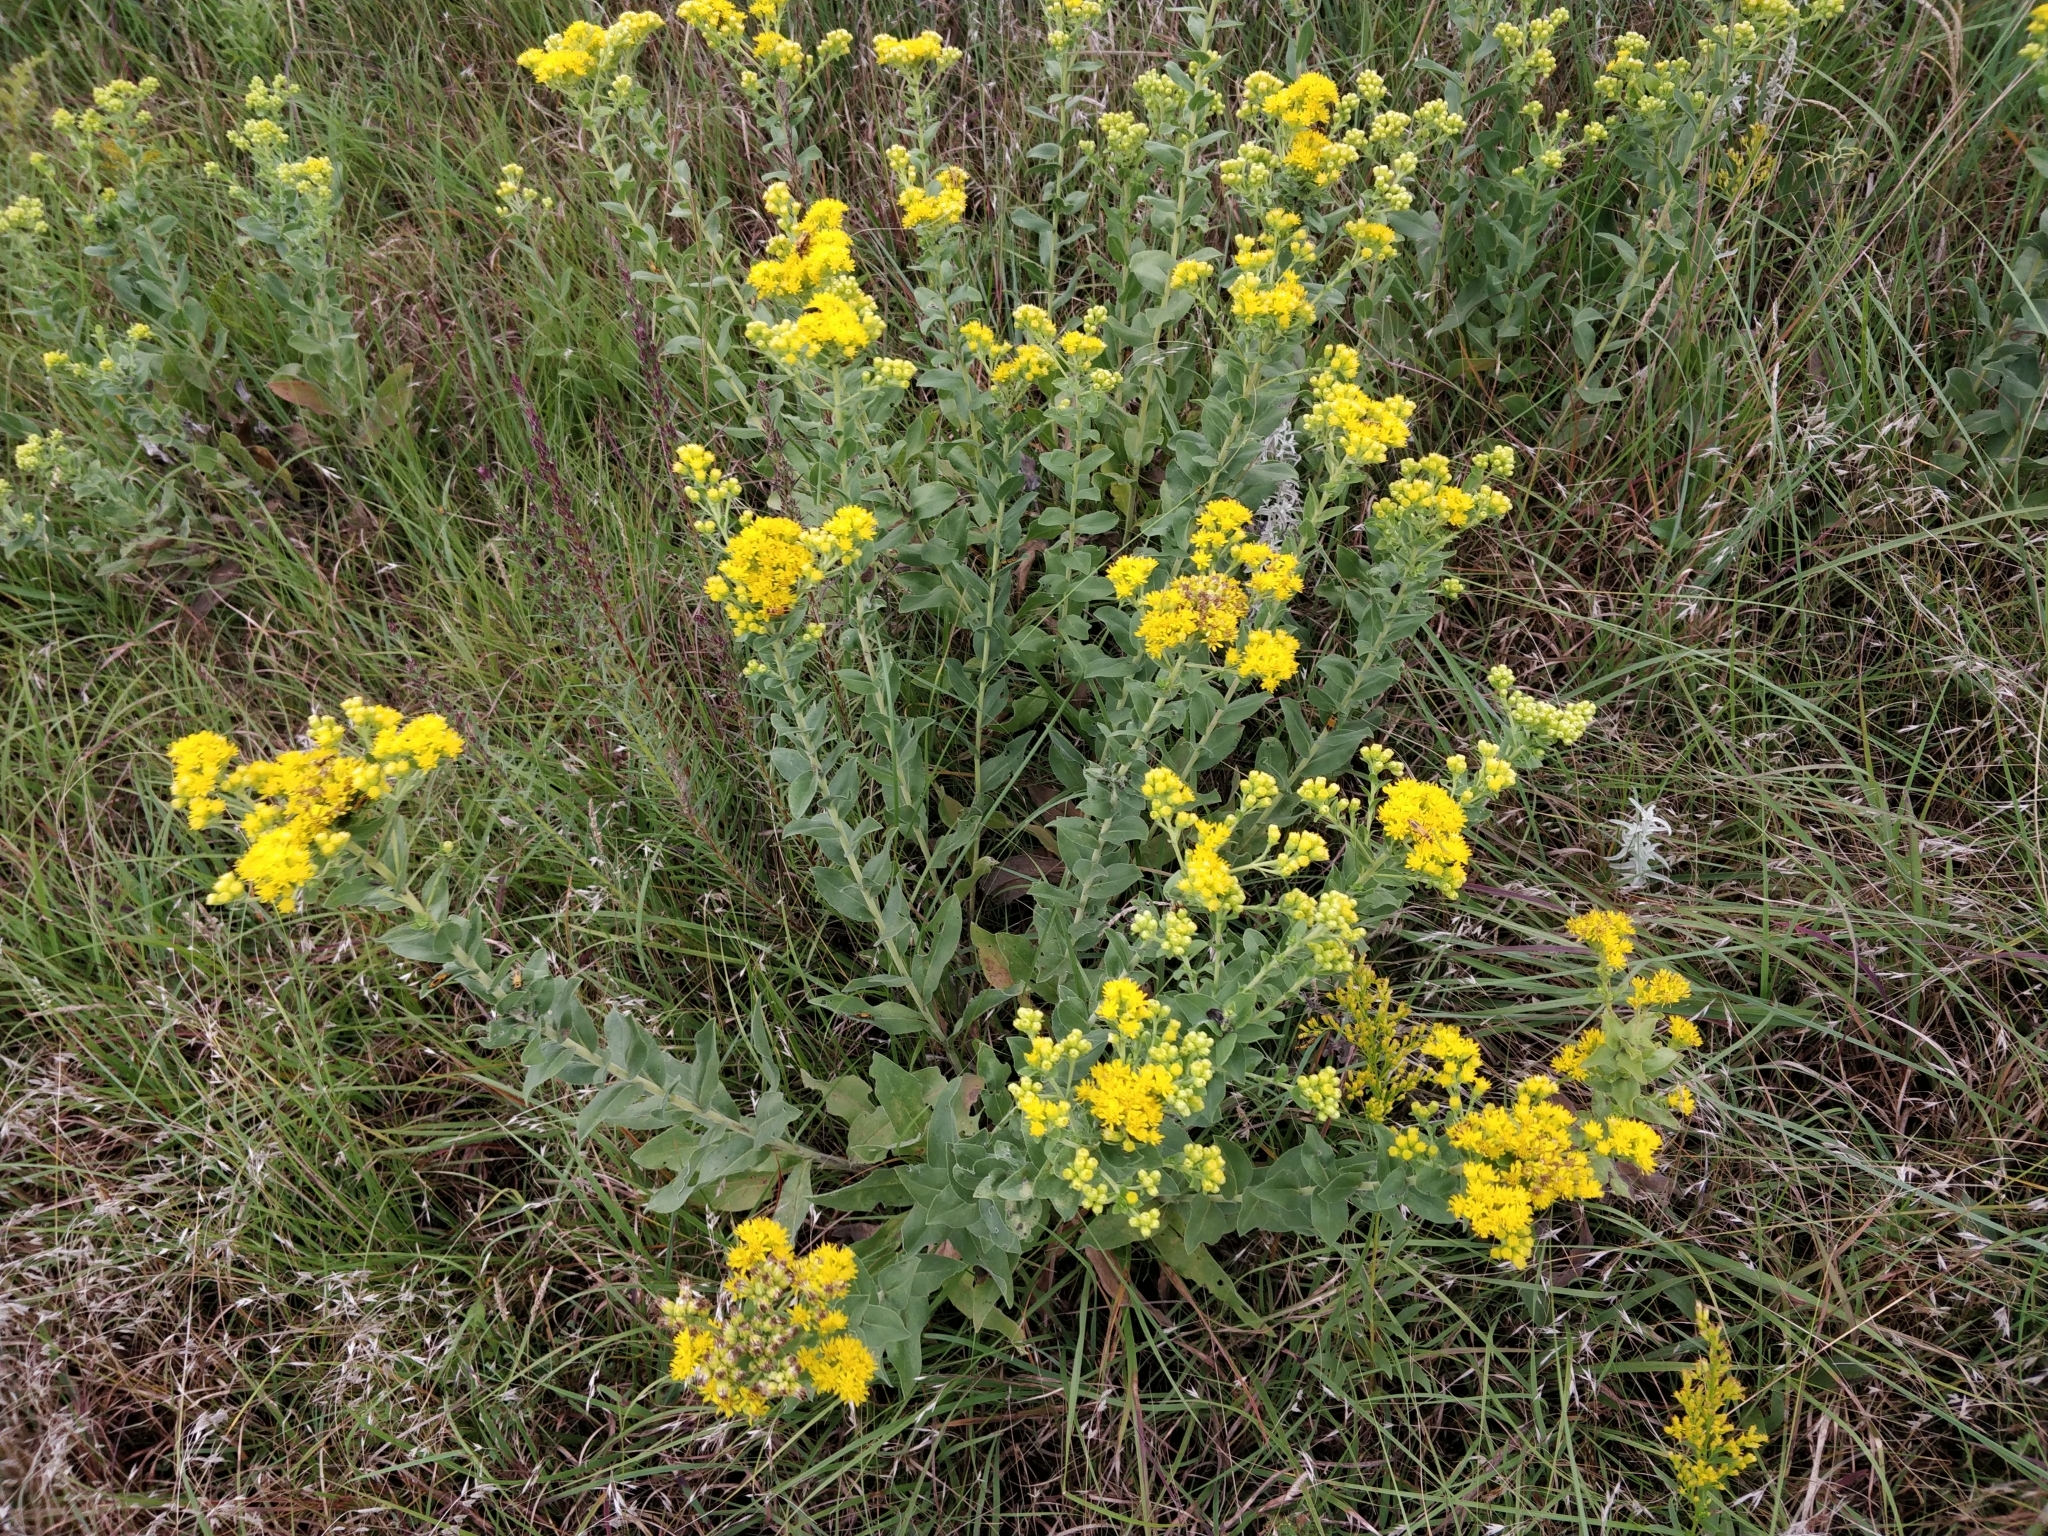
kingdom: Plantae
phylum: Tracheophyta
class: Magnoliopsida
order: Asterales
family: Asteraceae
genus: Solidago
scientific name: Solidago rigida
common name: Rigid goldenrod
